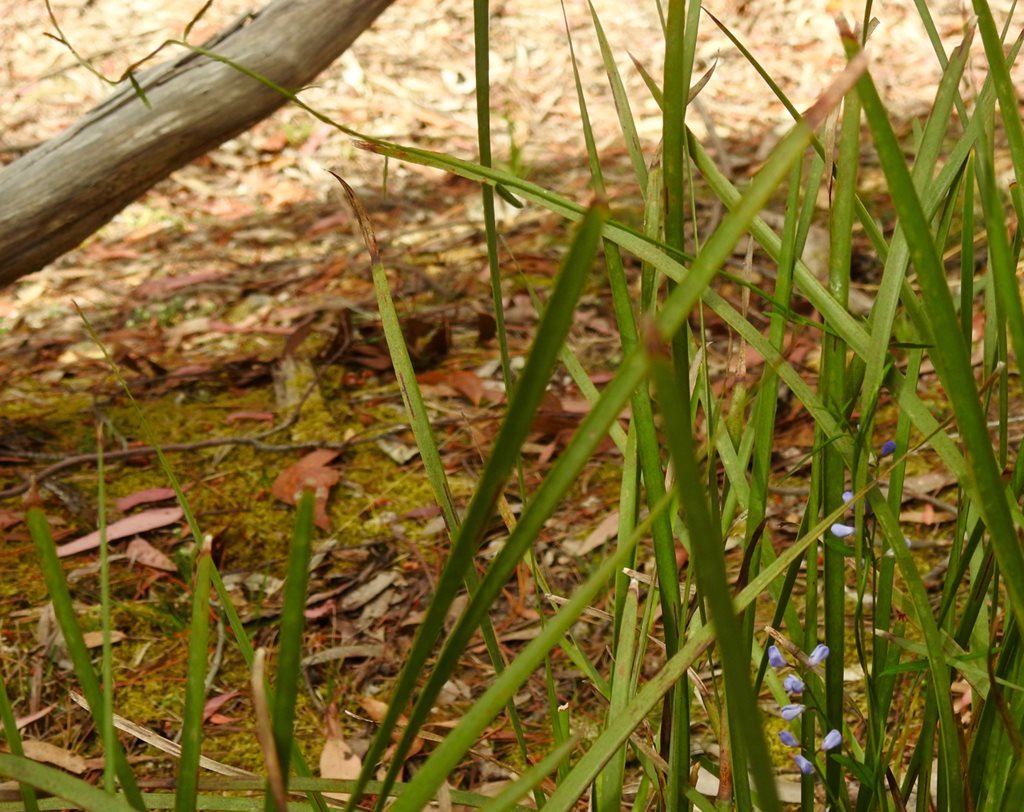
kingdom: Plantae
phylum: Tracheophyta
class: Magnoliopsida
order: Fabales
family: Polygalaceae
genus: Comesperma
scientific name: Comesperma volubile
